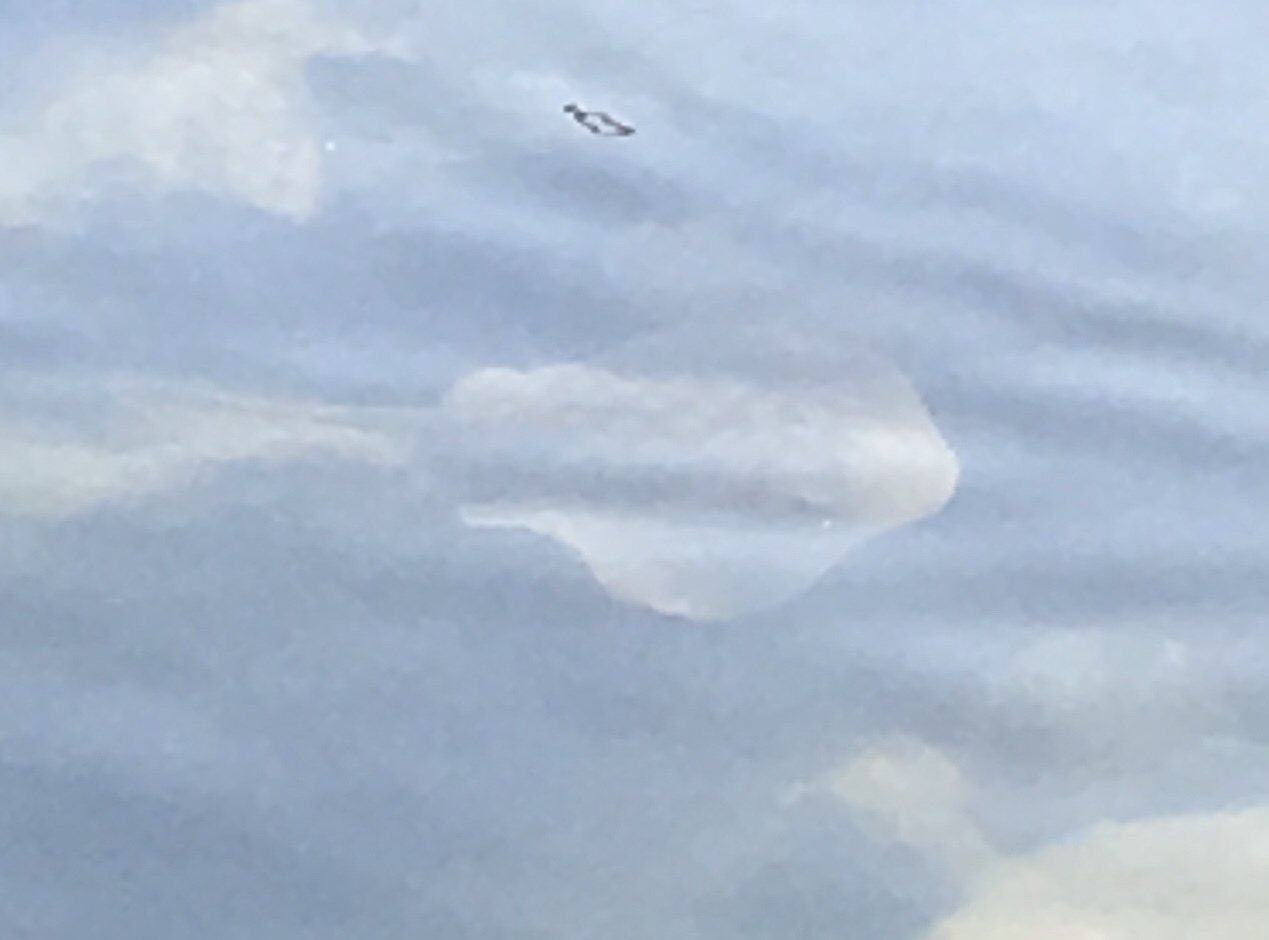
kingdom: Animalia
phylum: Chordata
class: Elasmobranchii
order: Myliobatiformes
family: Urolophidae
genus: Urolophus
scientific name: Urolophus halleri
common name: Round stingray
